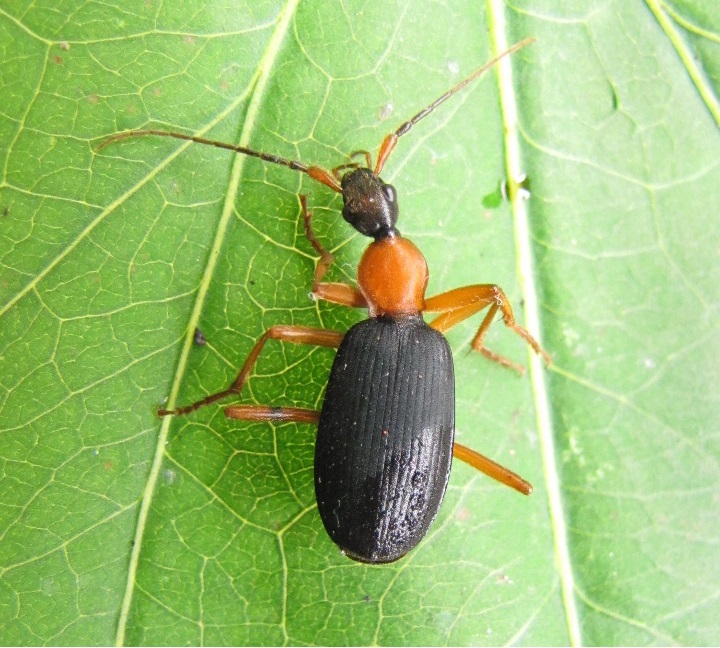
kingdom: Animalia
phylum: Arthropoda
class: Insecta
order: Coleoptera
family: Carabidae
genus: Galerita
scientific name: Galerita bicolor
